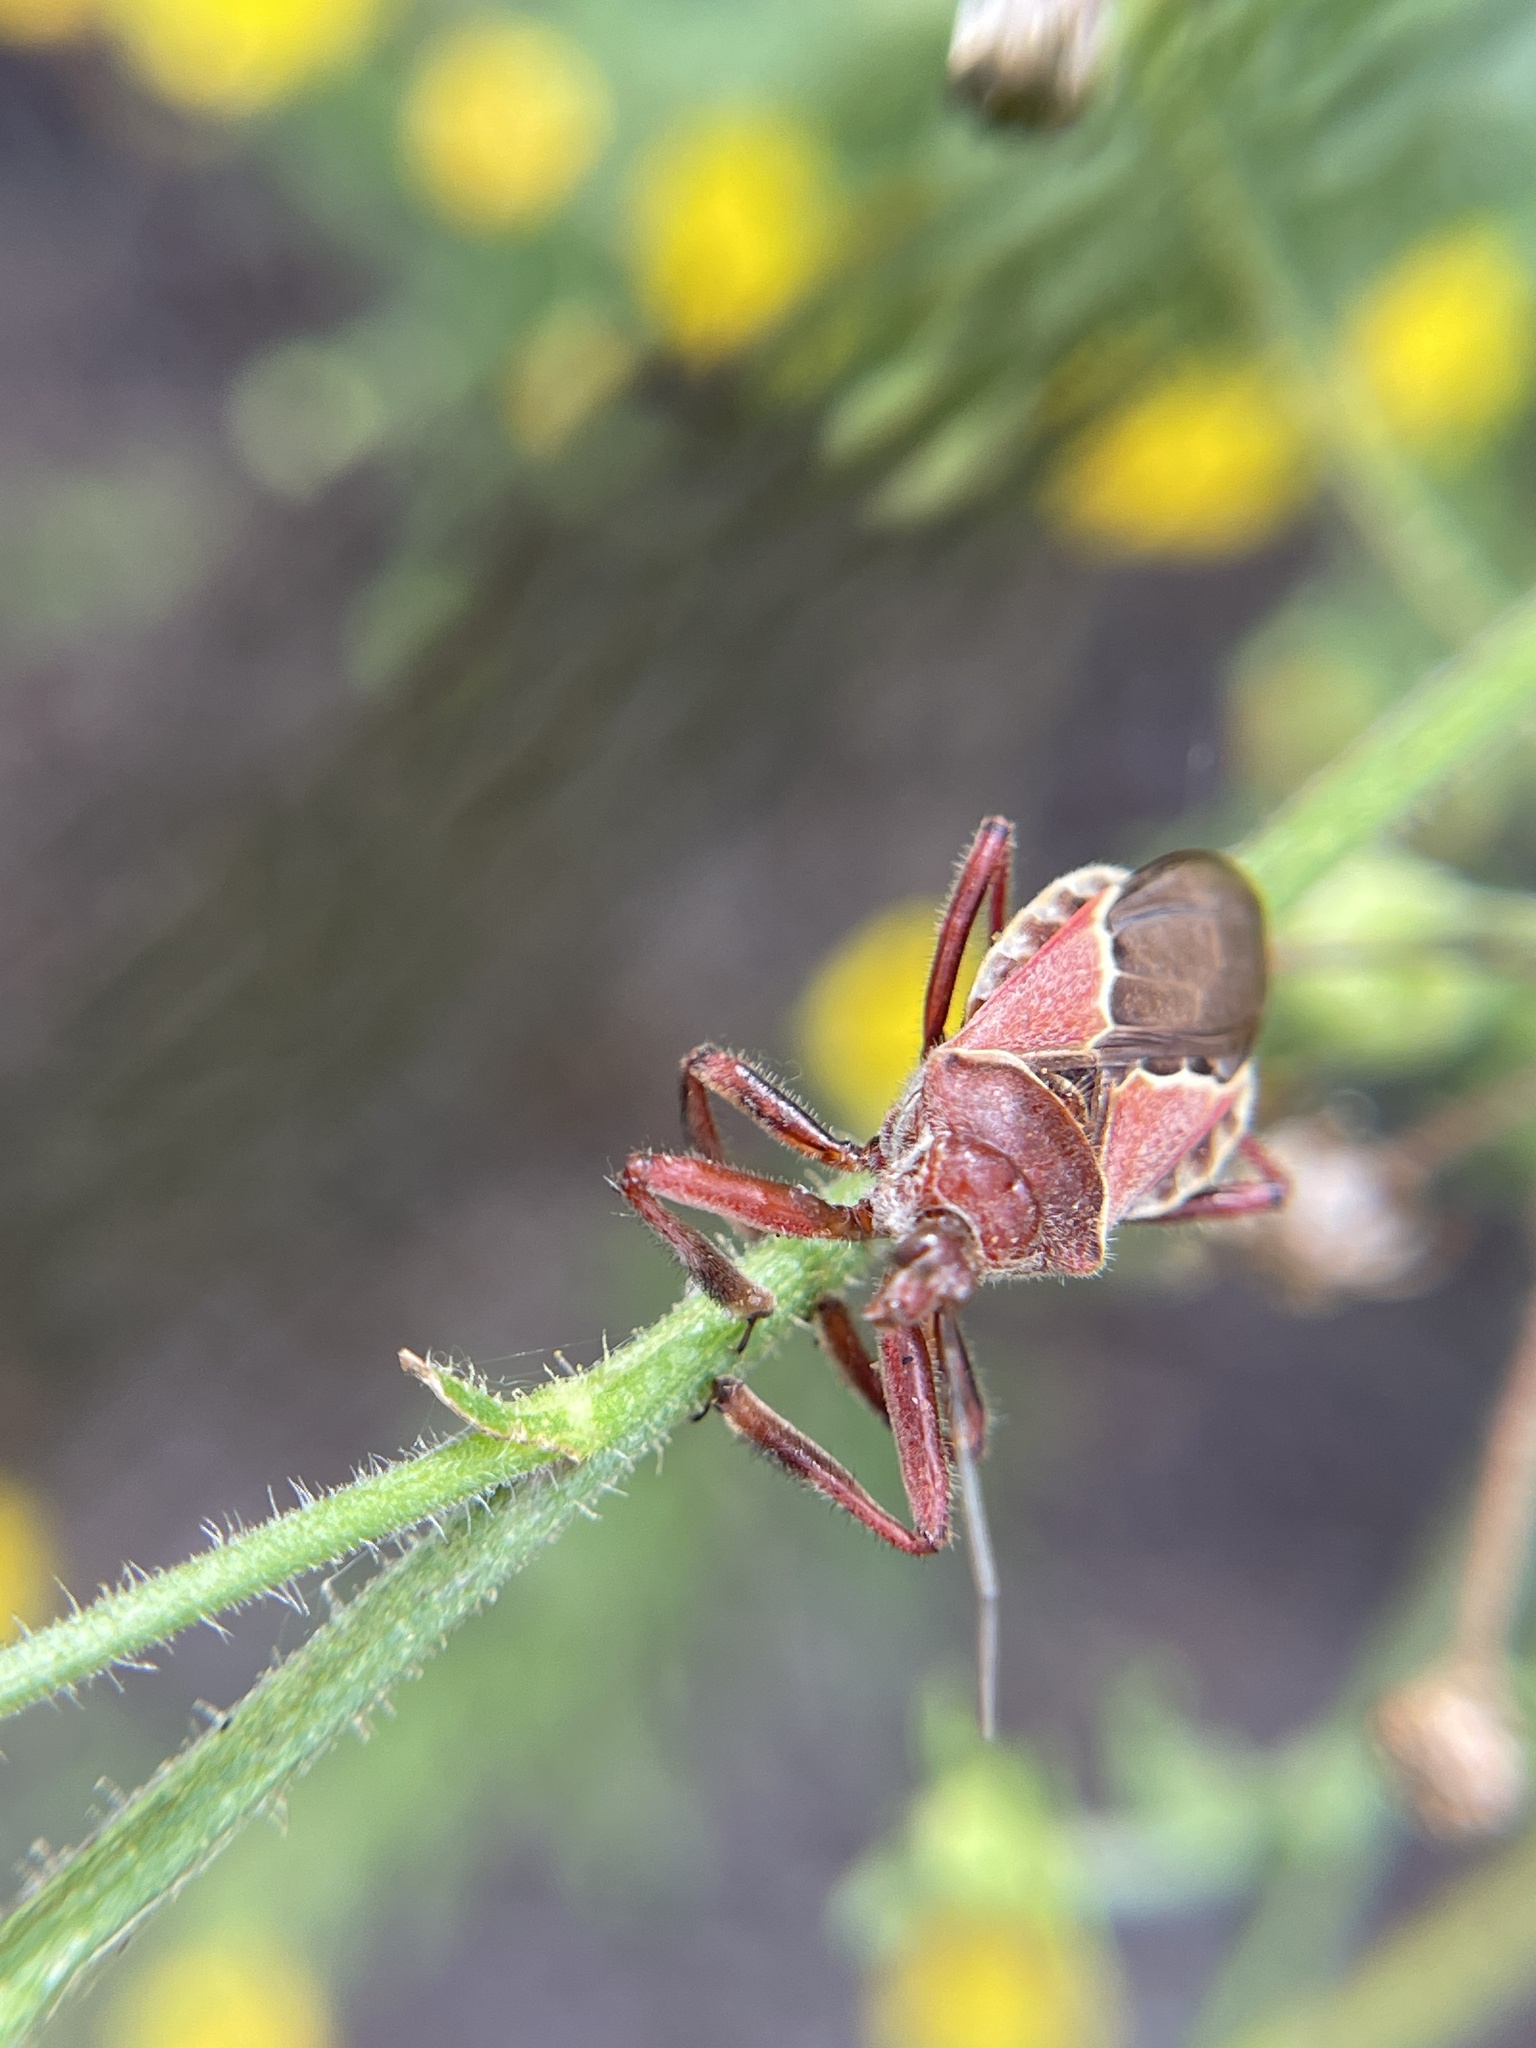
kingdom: Animalia
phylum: Arthropoda
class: Insecta
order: Hemiptera
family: Reduviidae
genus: Apiomerus
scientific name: Apiomerus spissipes
